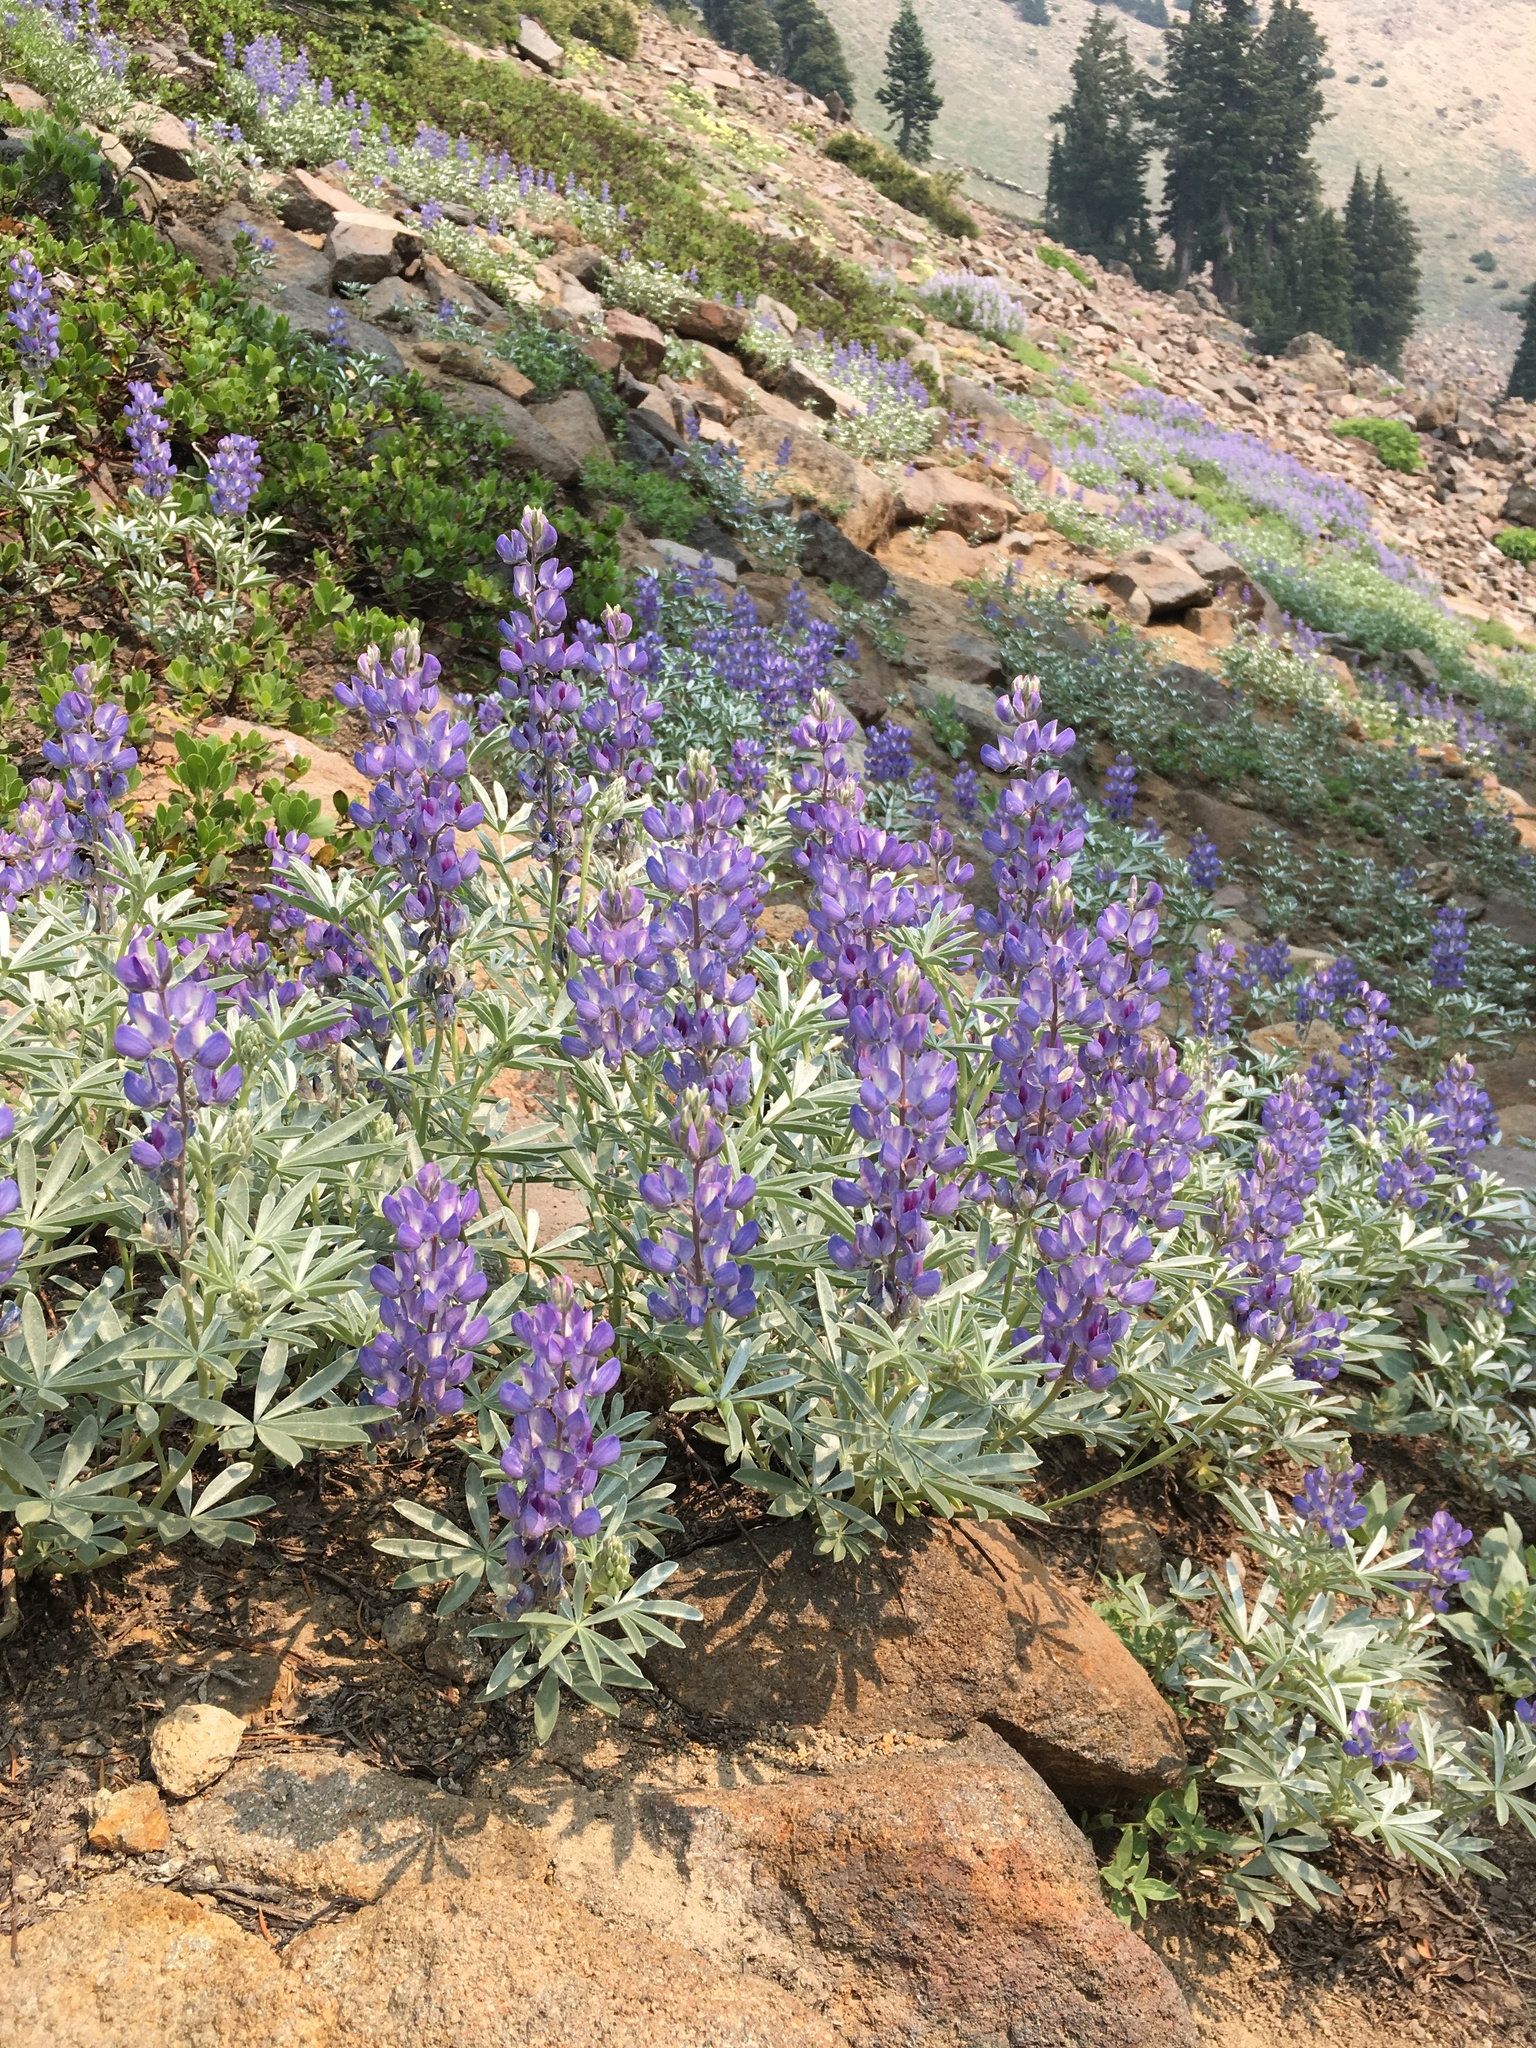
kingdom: Plantae
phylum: Tracheophyta
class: Magnoliopsida
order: Fabales
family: Fabaceae
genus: Lupinus
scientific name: Lupinus obtusilobus
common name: Blunt-lobe lupine
